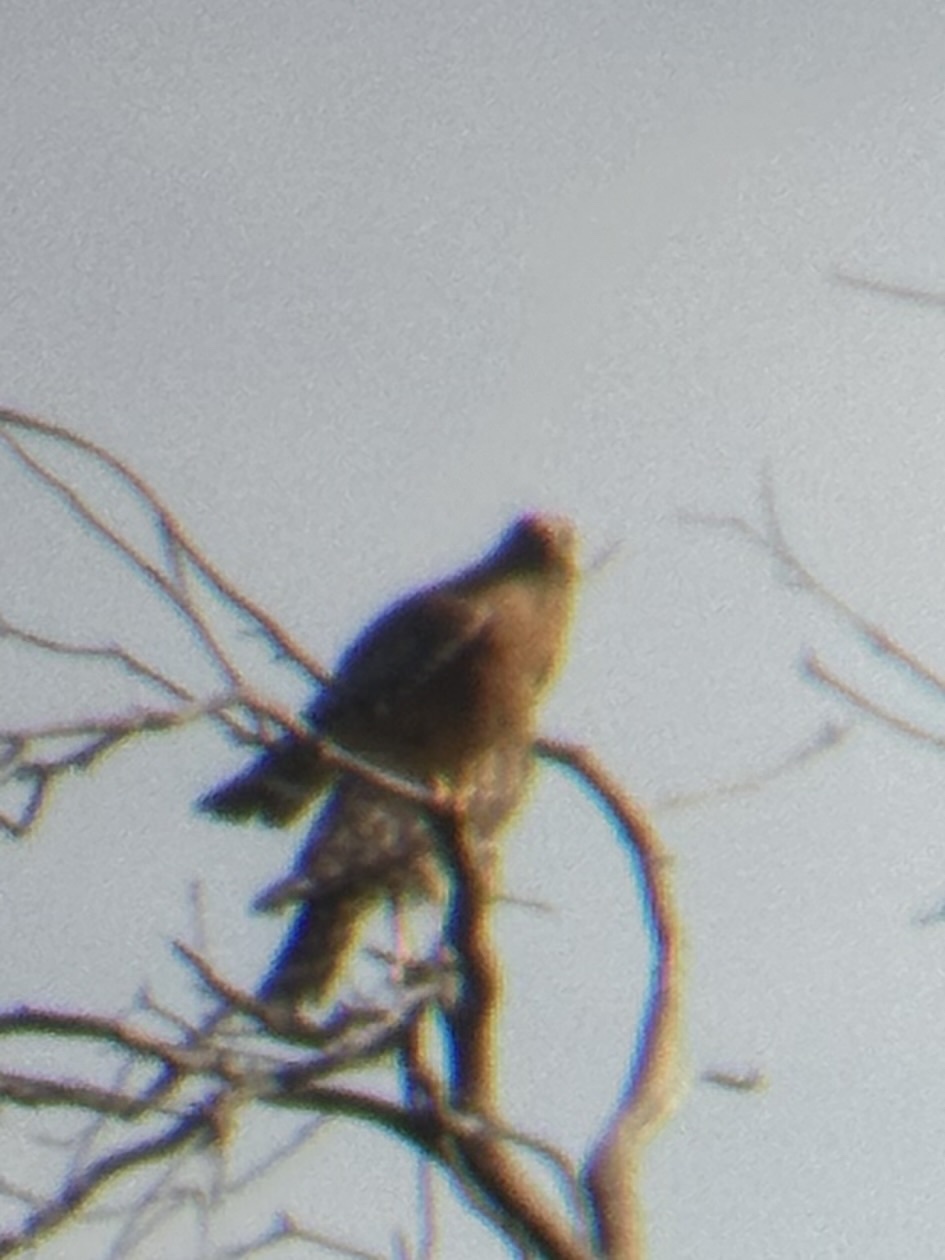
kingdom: Animalia
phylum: Chordata
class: Aves
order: Accipitriformes
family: Accipitridae
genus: Buteo
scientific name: Buteo lineatus
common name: Red-shouldered hawk
